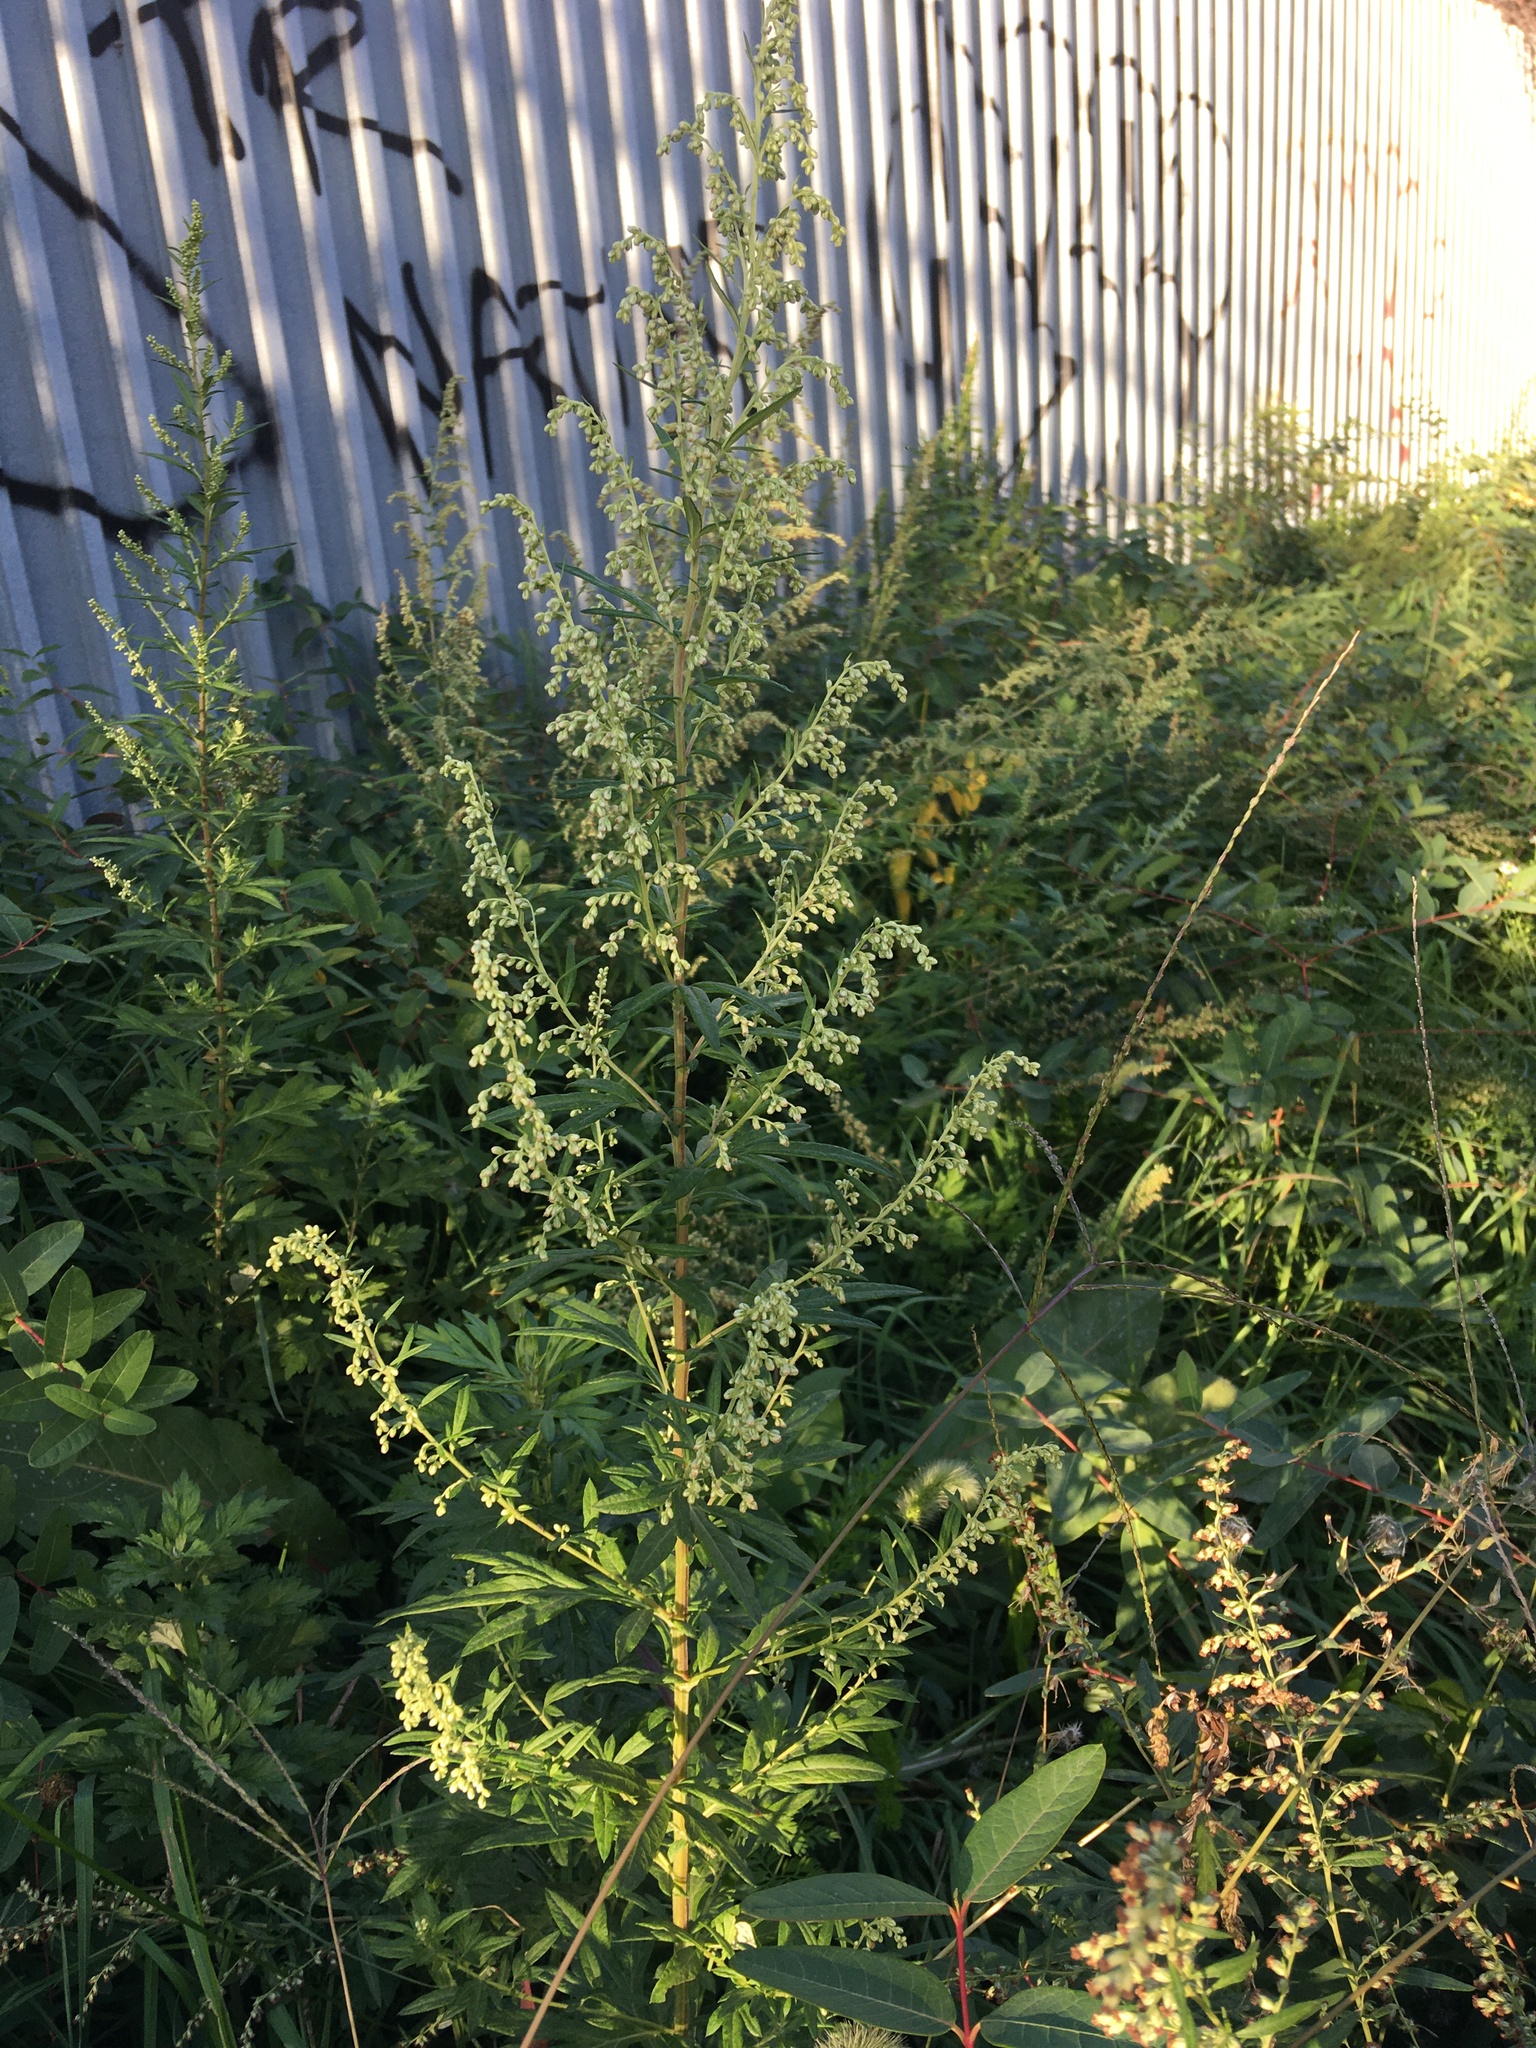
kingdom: Plantae
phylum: Tracheophyta
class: Magnoliopsida
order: Asterales
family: Asteraceae
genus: Artemisia
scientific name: Artemisia vulgaris
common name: Mugwort
